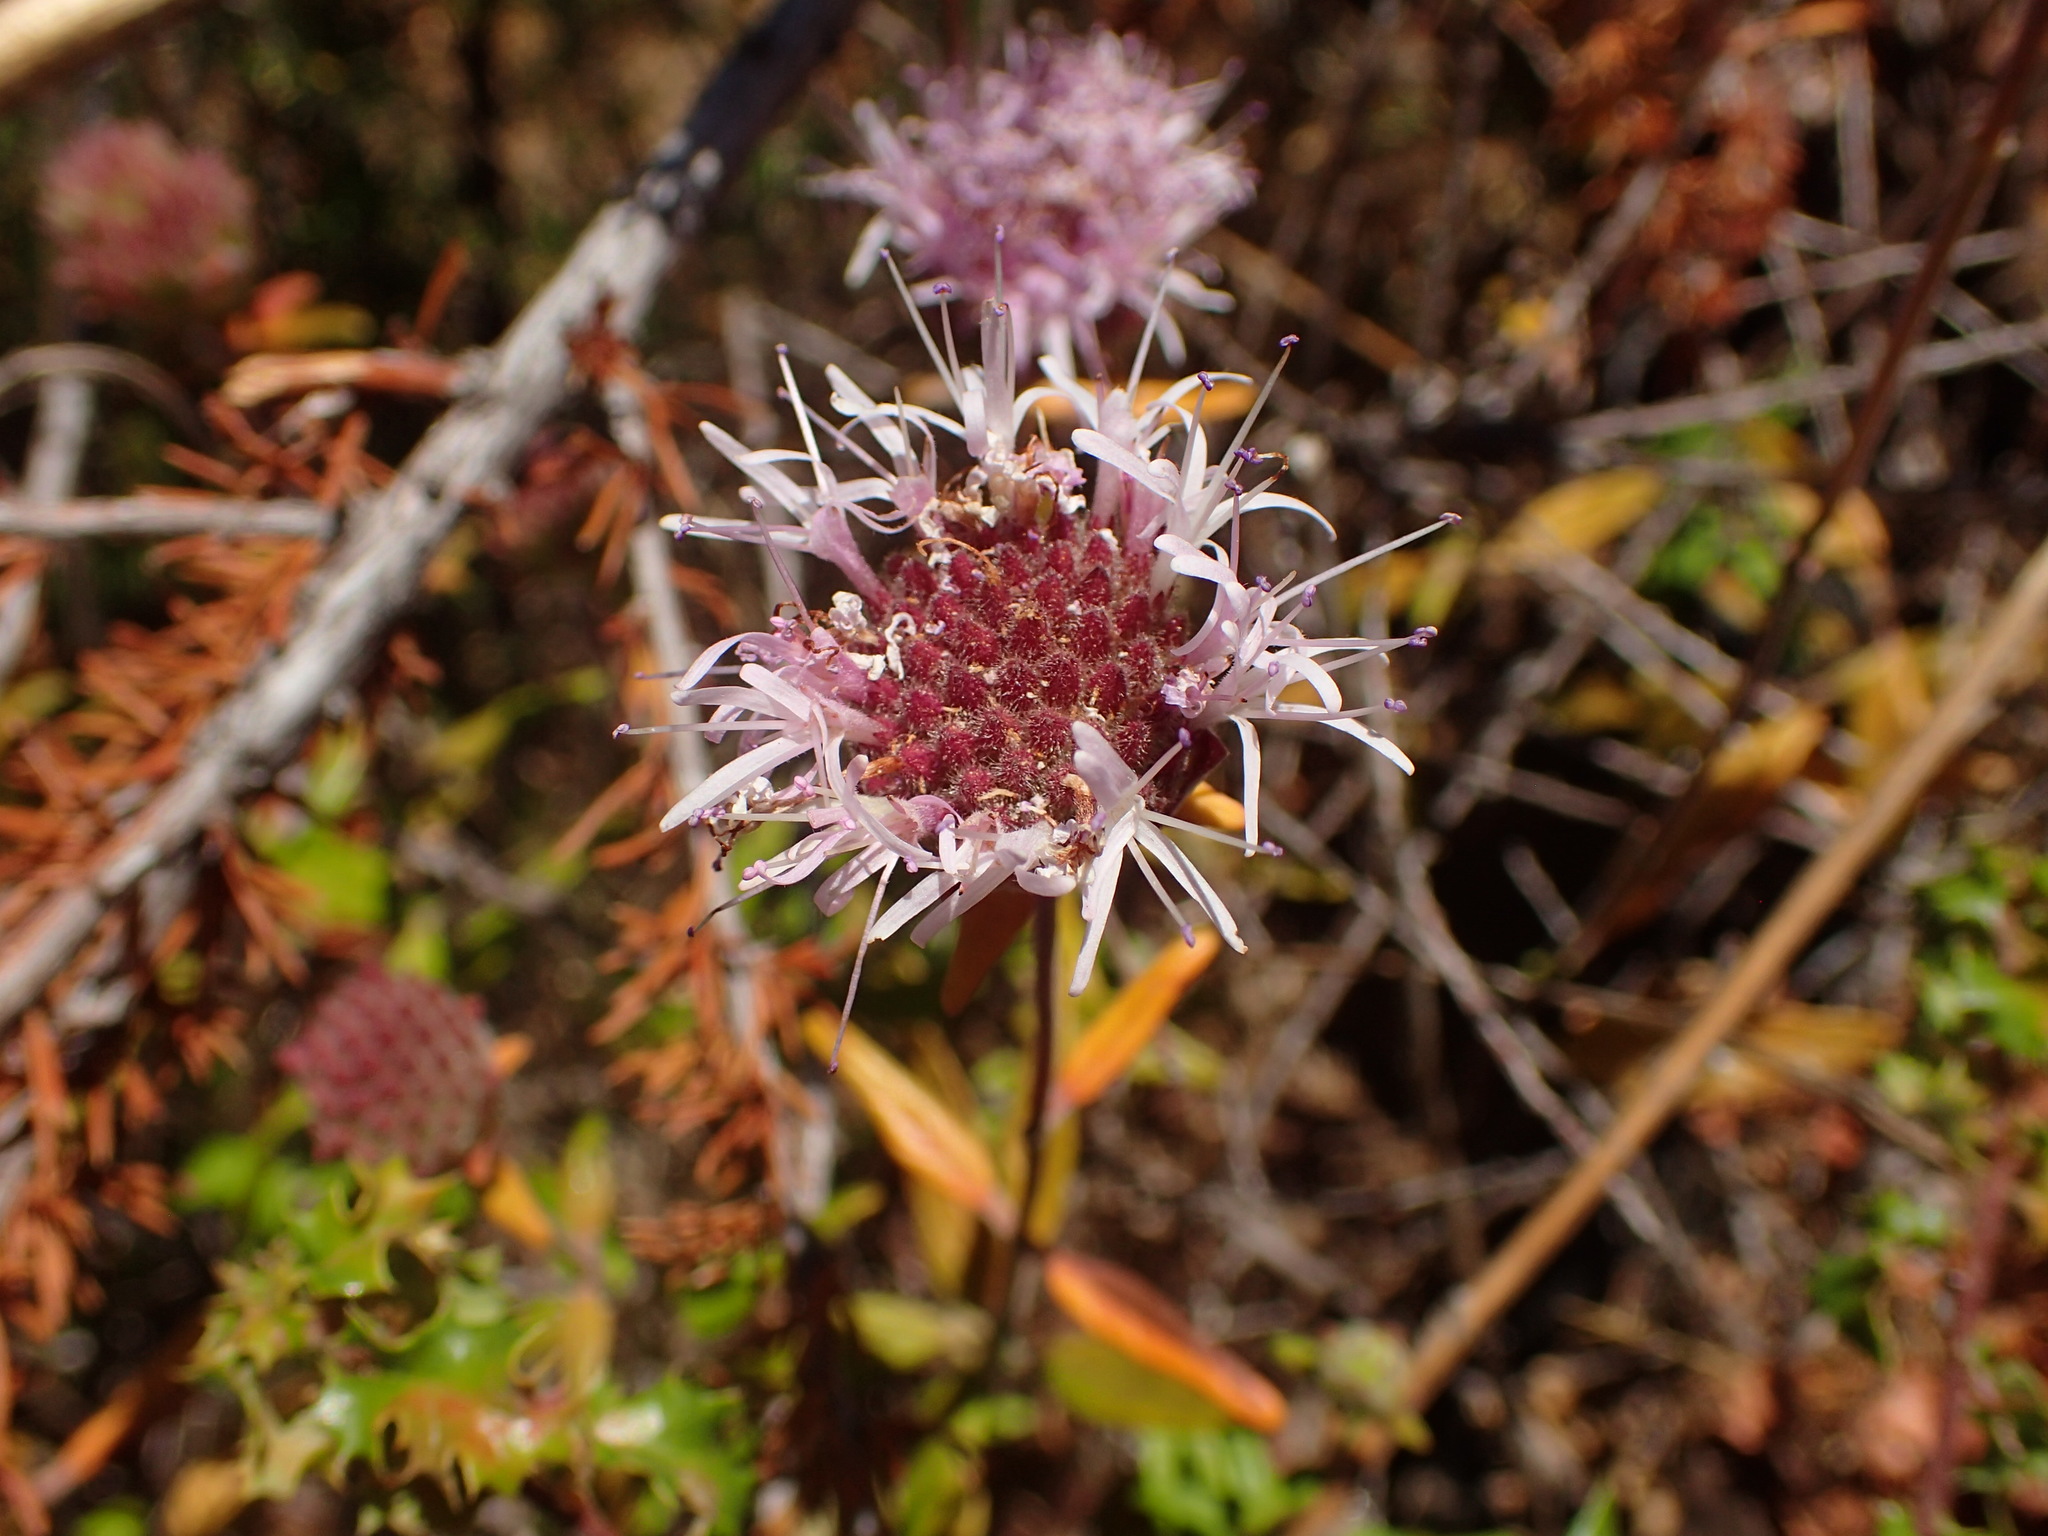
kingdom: Plantae
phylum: Tracheophyta
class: Magnoliopsida
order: Lamiales
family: Lamiaceae
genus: Monardella
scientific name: Monardella hypoleuca
